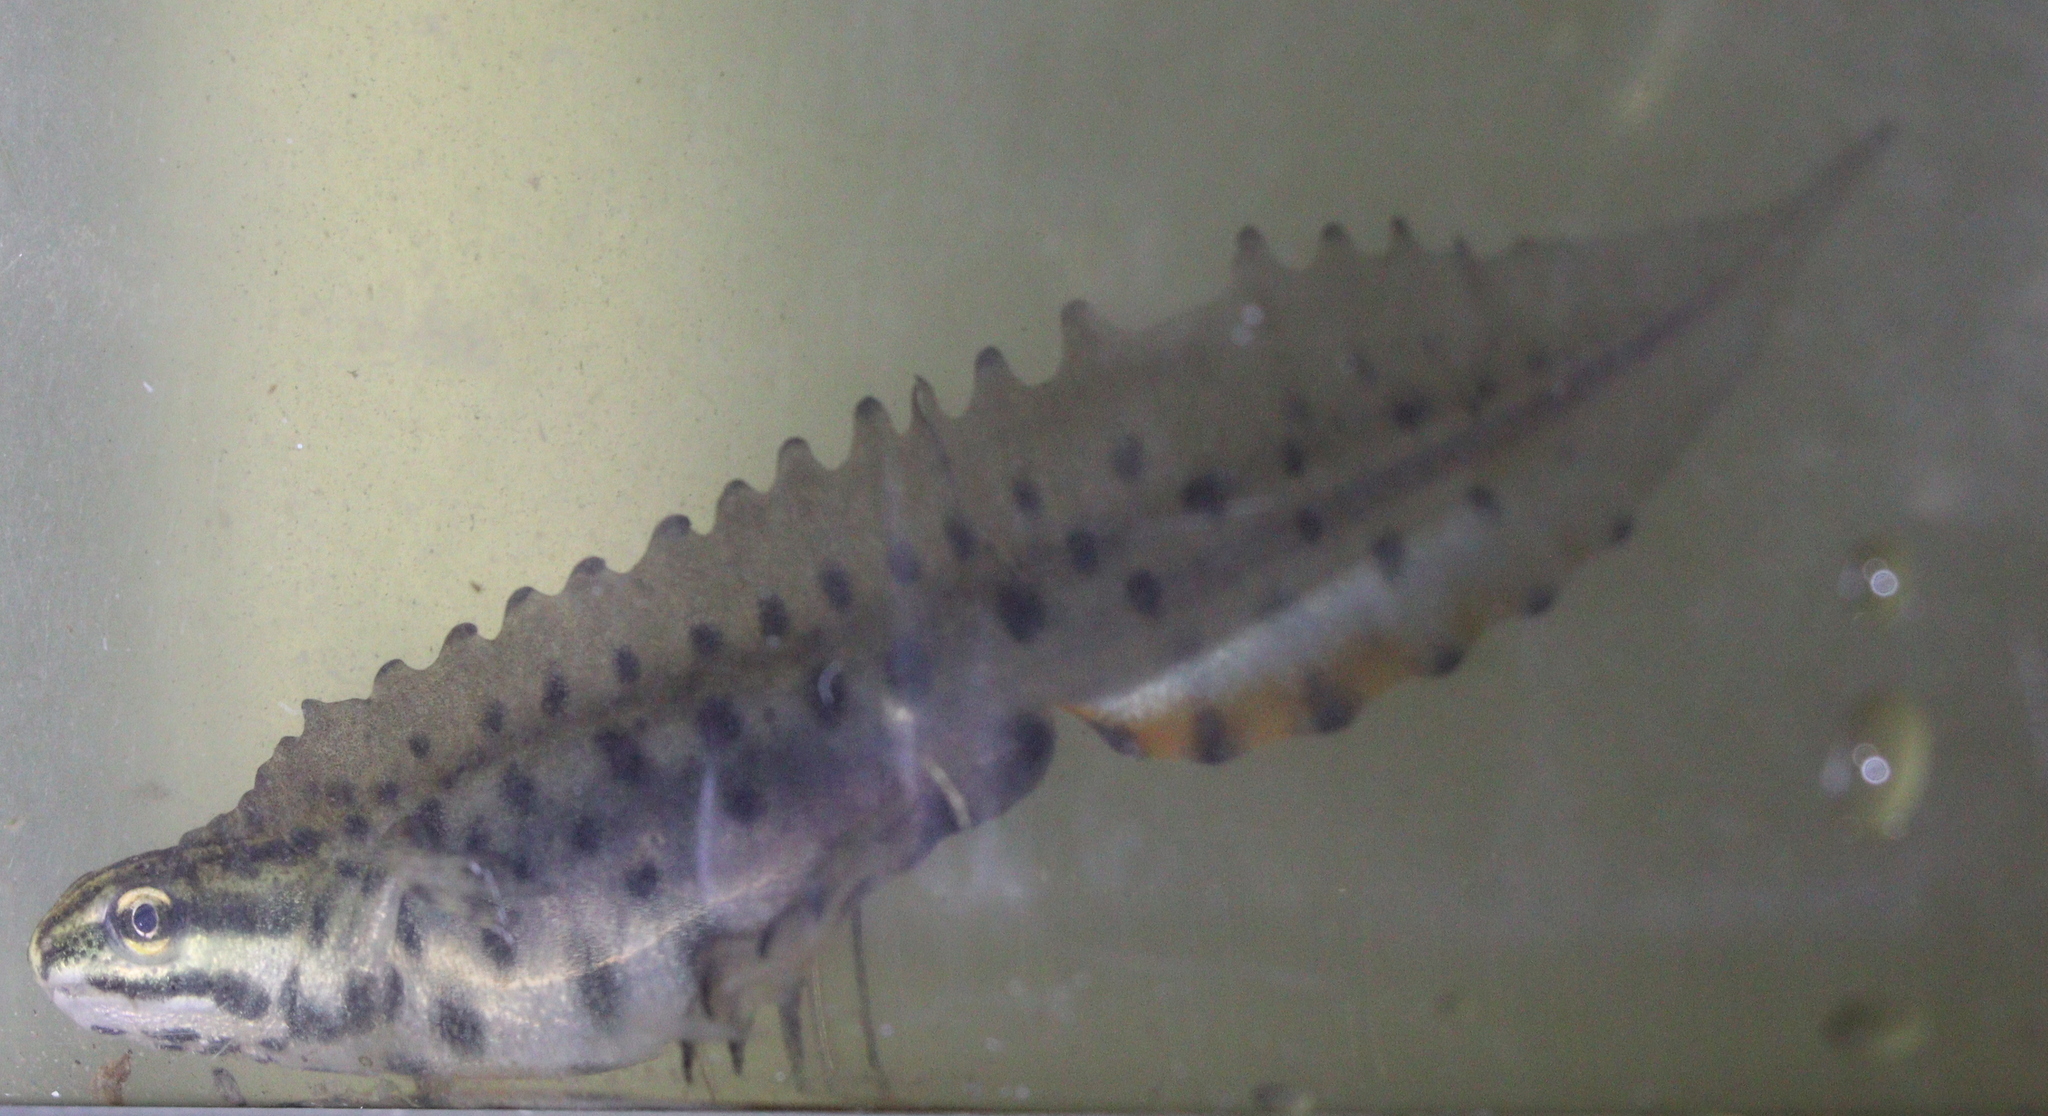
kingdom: Animalia
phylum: Chordata
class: Amphibia
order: Caudata
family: Salamandridae
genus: Lissotriton
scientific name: Lissotriton vulgaris
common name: Smooth newt
